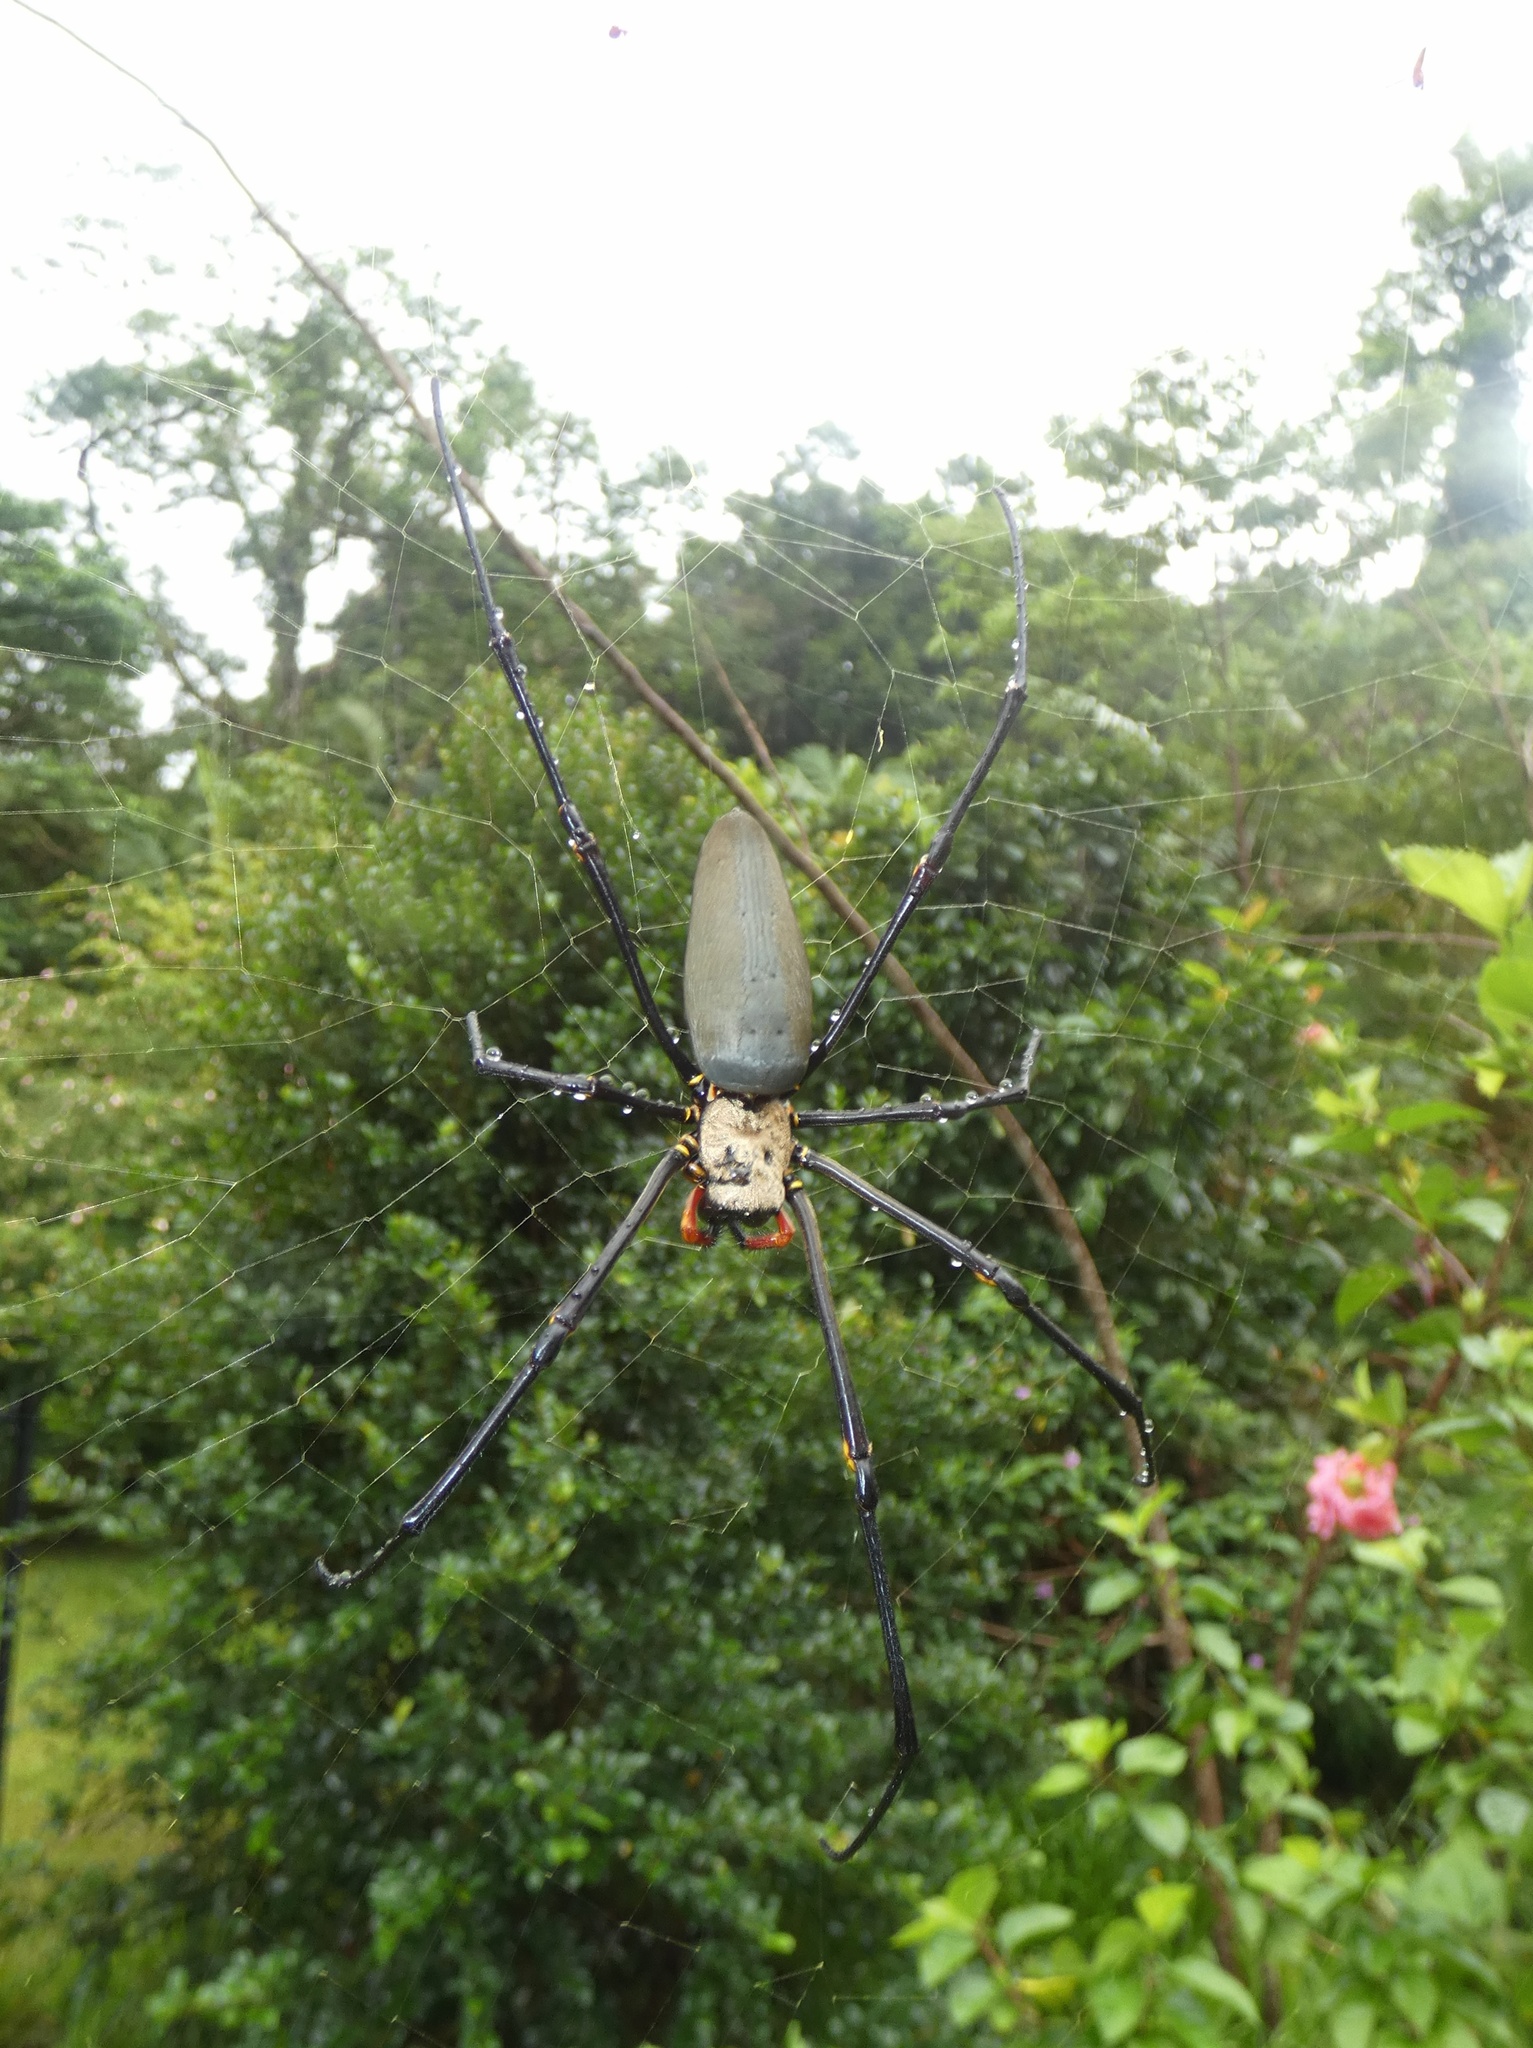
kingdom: Animalia
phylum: Arthropoda
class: Arachnida
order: Araneae
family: Araneidae
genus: Nephila
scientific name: Nephila pilipes
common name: Giant golden orb weaver
